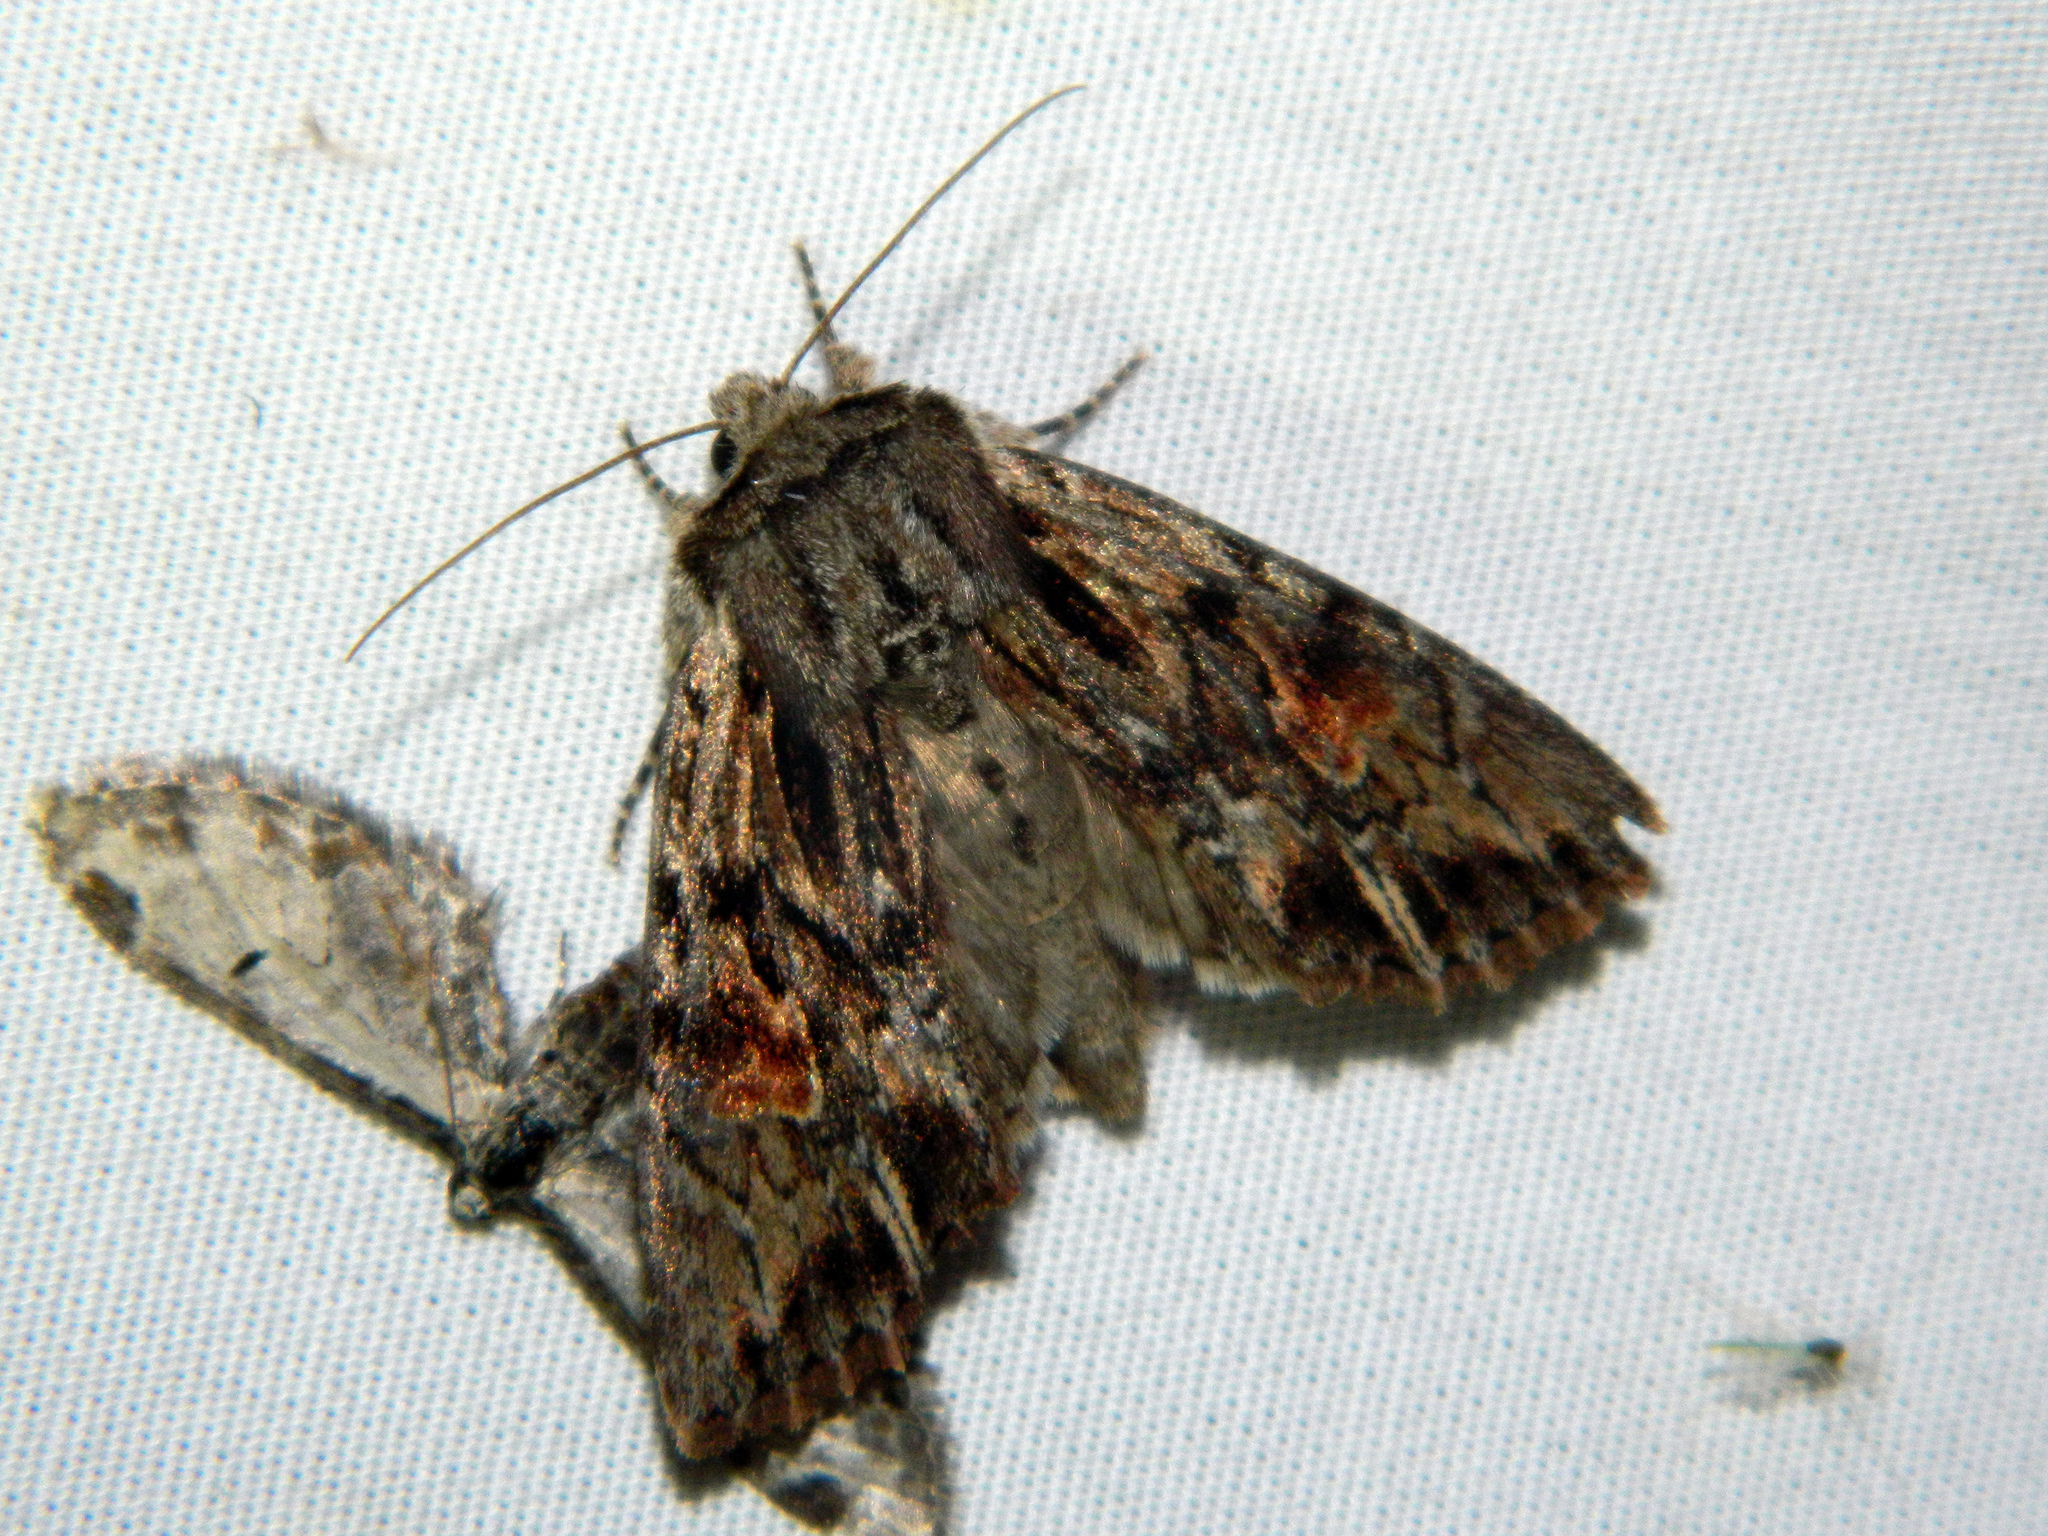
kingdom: Animalia
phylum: Arthropoda
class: Insecta
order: Lepidoptera
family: Noctuidae
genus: Achatia
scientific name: Achatia evicta
